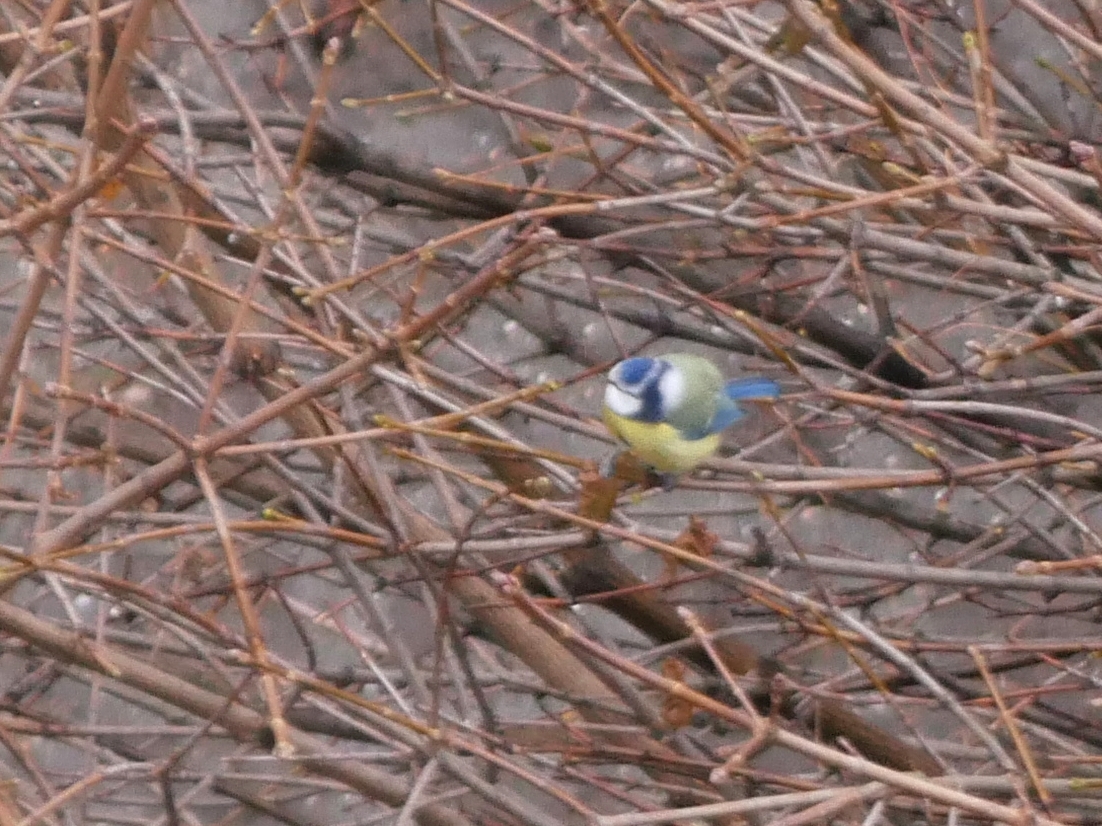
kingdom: Animalia
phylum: Chordata
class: Aves
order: Passeriformes
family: Paridae
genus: Cyanistes
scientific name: Cyanistes caeruleus
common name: Eurasian blue tit
